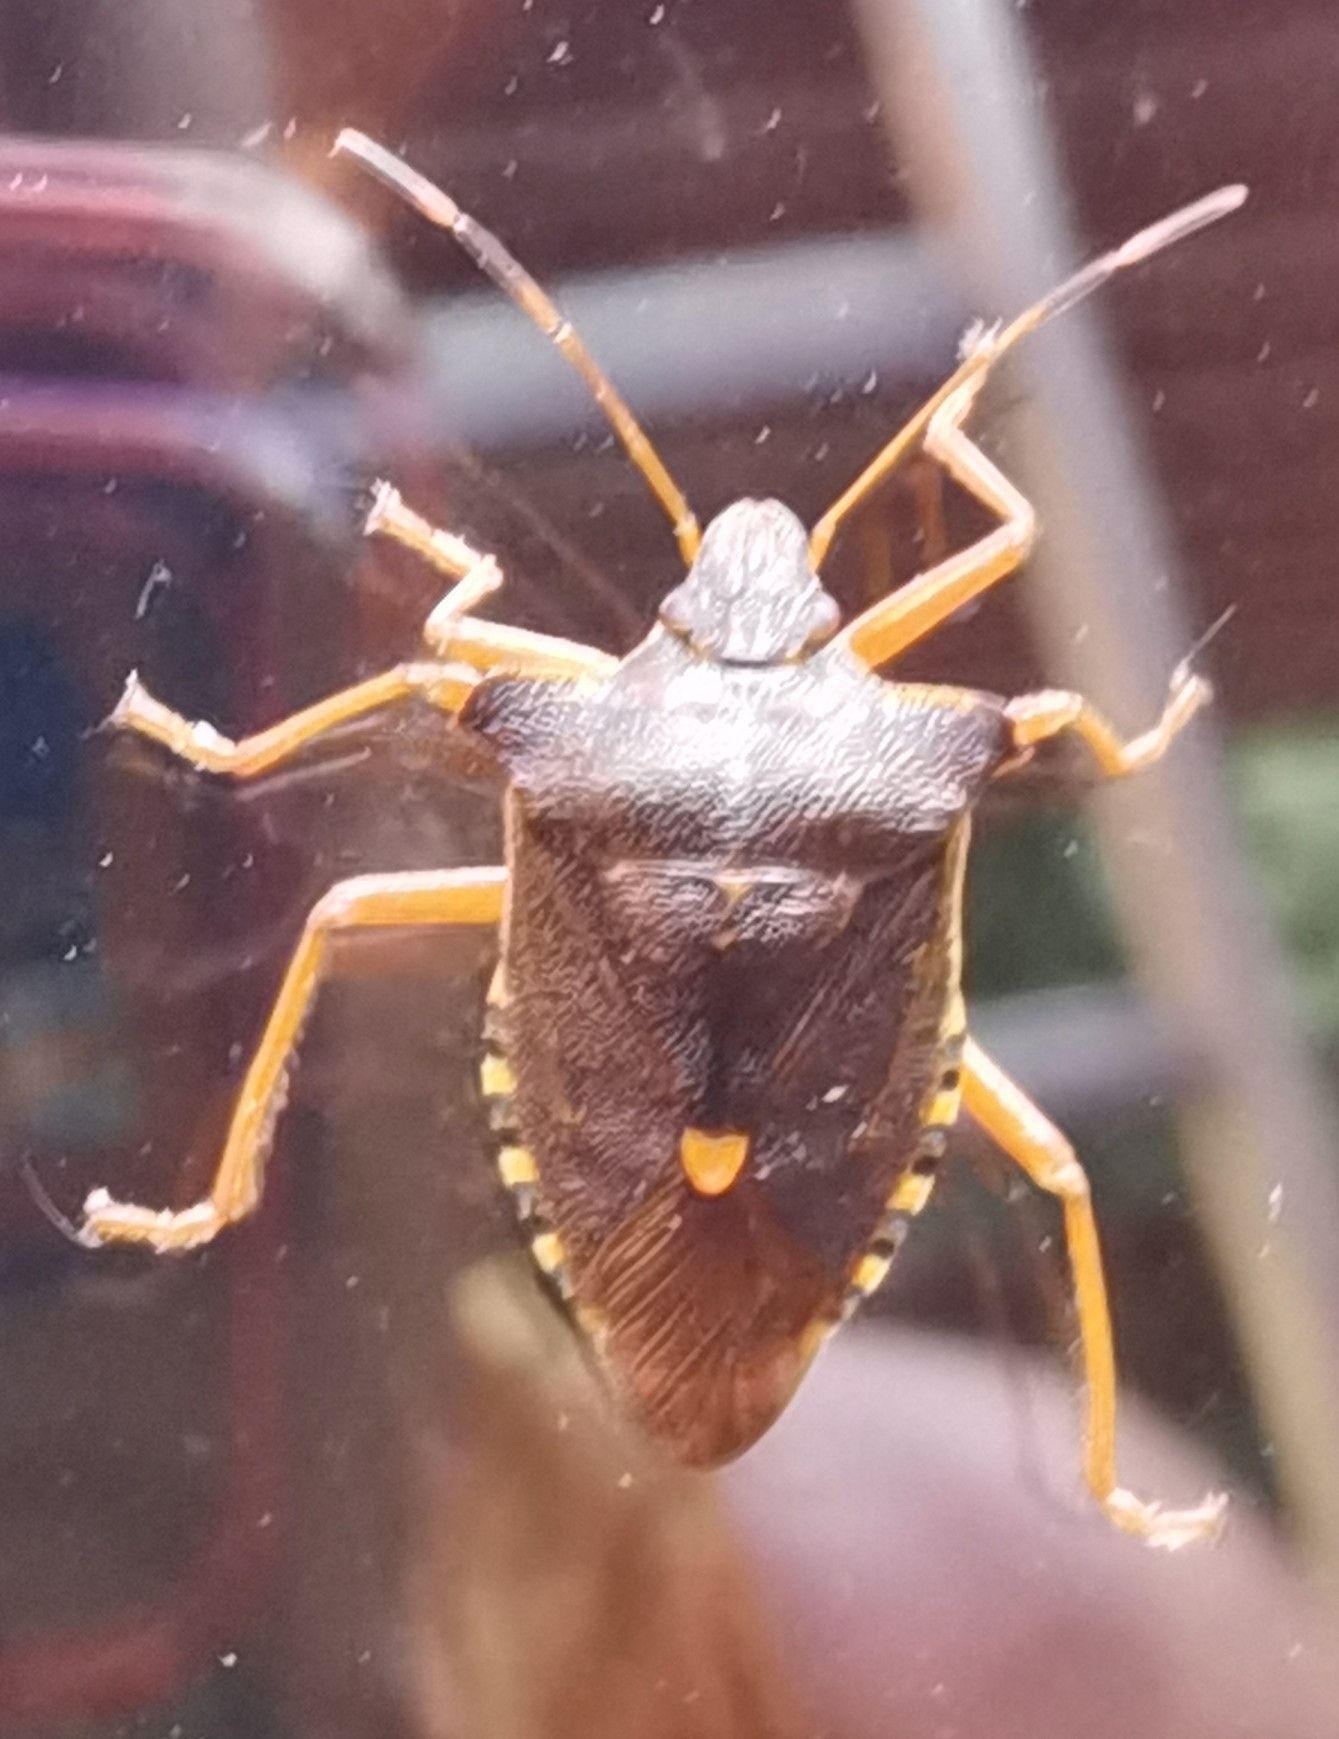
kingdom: Animalia
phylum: Arthropoda
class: Insecta
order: Hemiptera
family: Pentatomidae
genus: Pentatoma
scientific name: Pentatoma rufipes
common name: Forest bug
